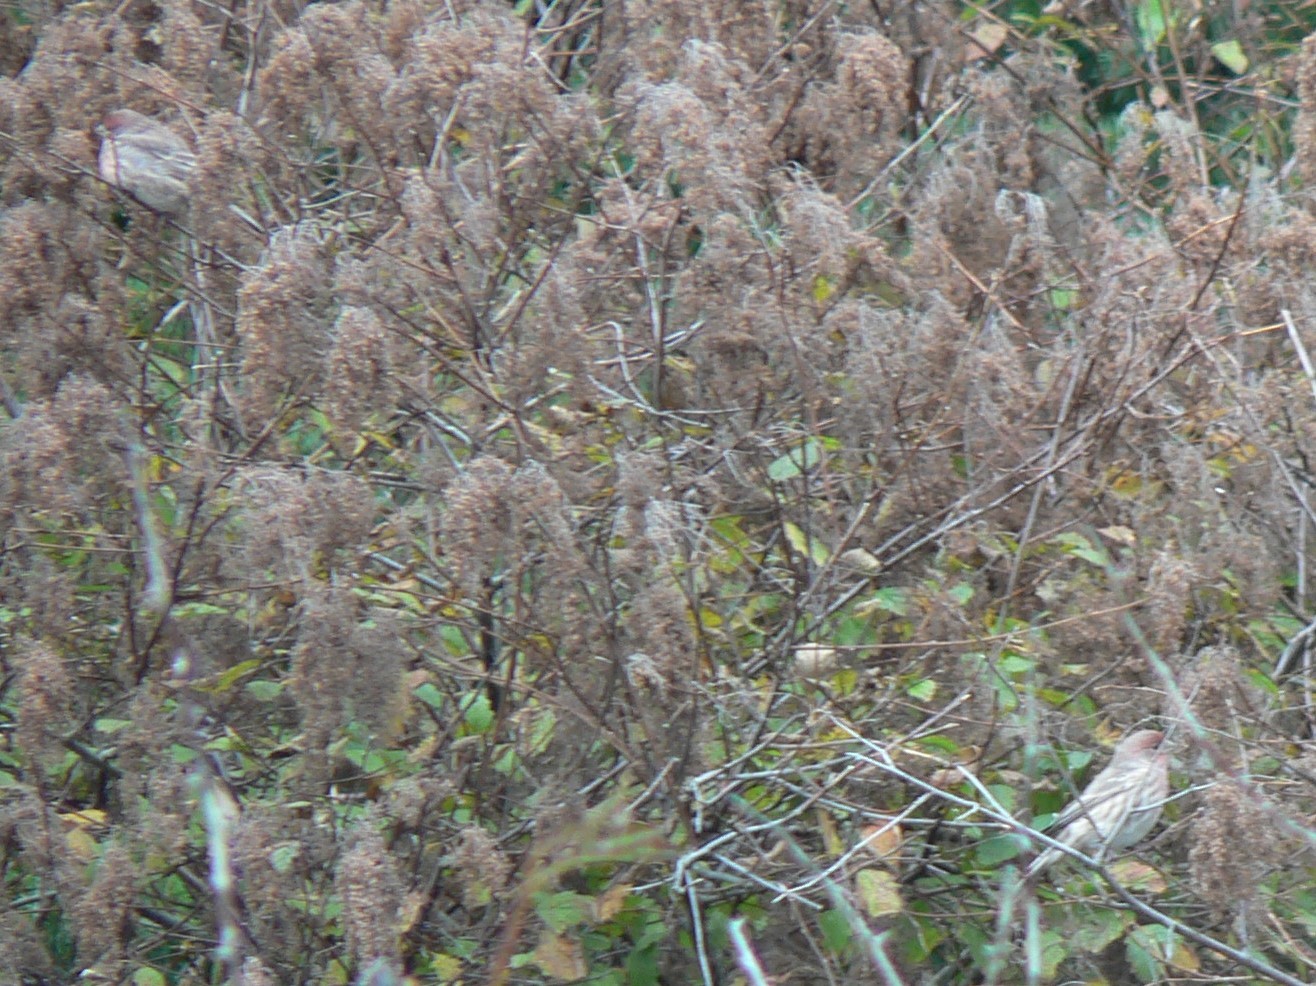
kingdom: Animalia
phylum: Chordata
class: Aves
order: Passeriformes
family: Fringillidae
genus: Haemorhous
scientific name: Haemorhous mexicanus
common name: House finch
